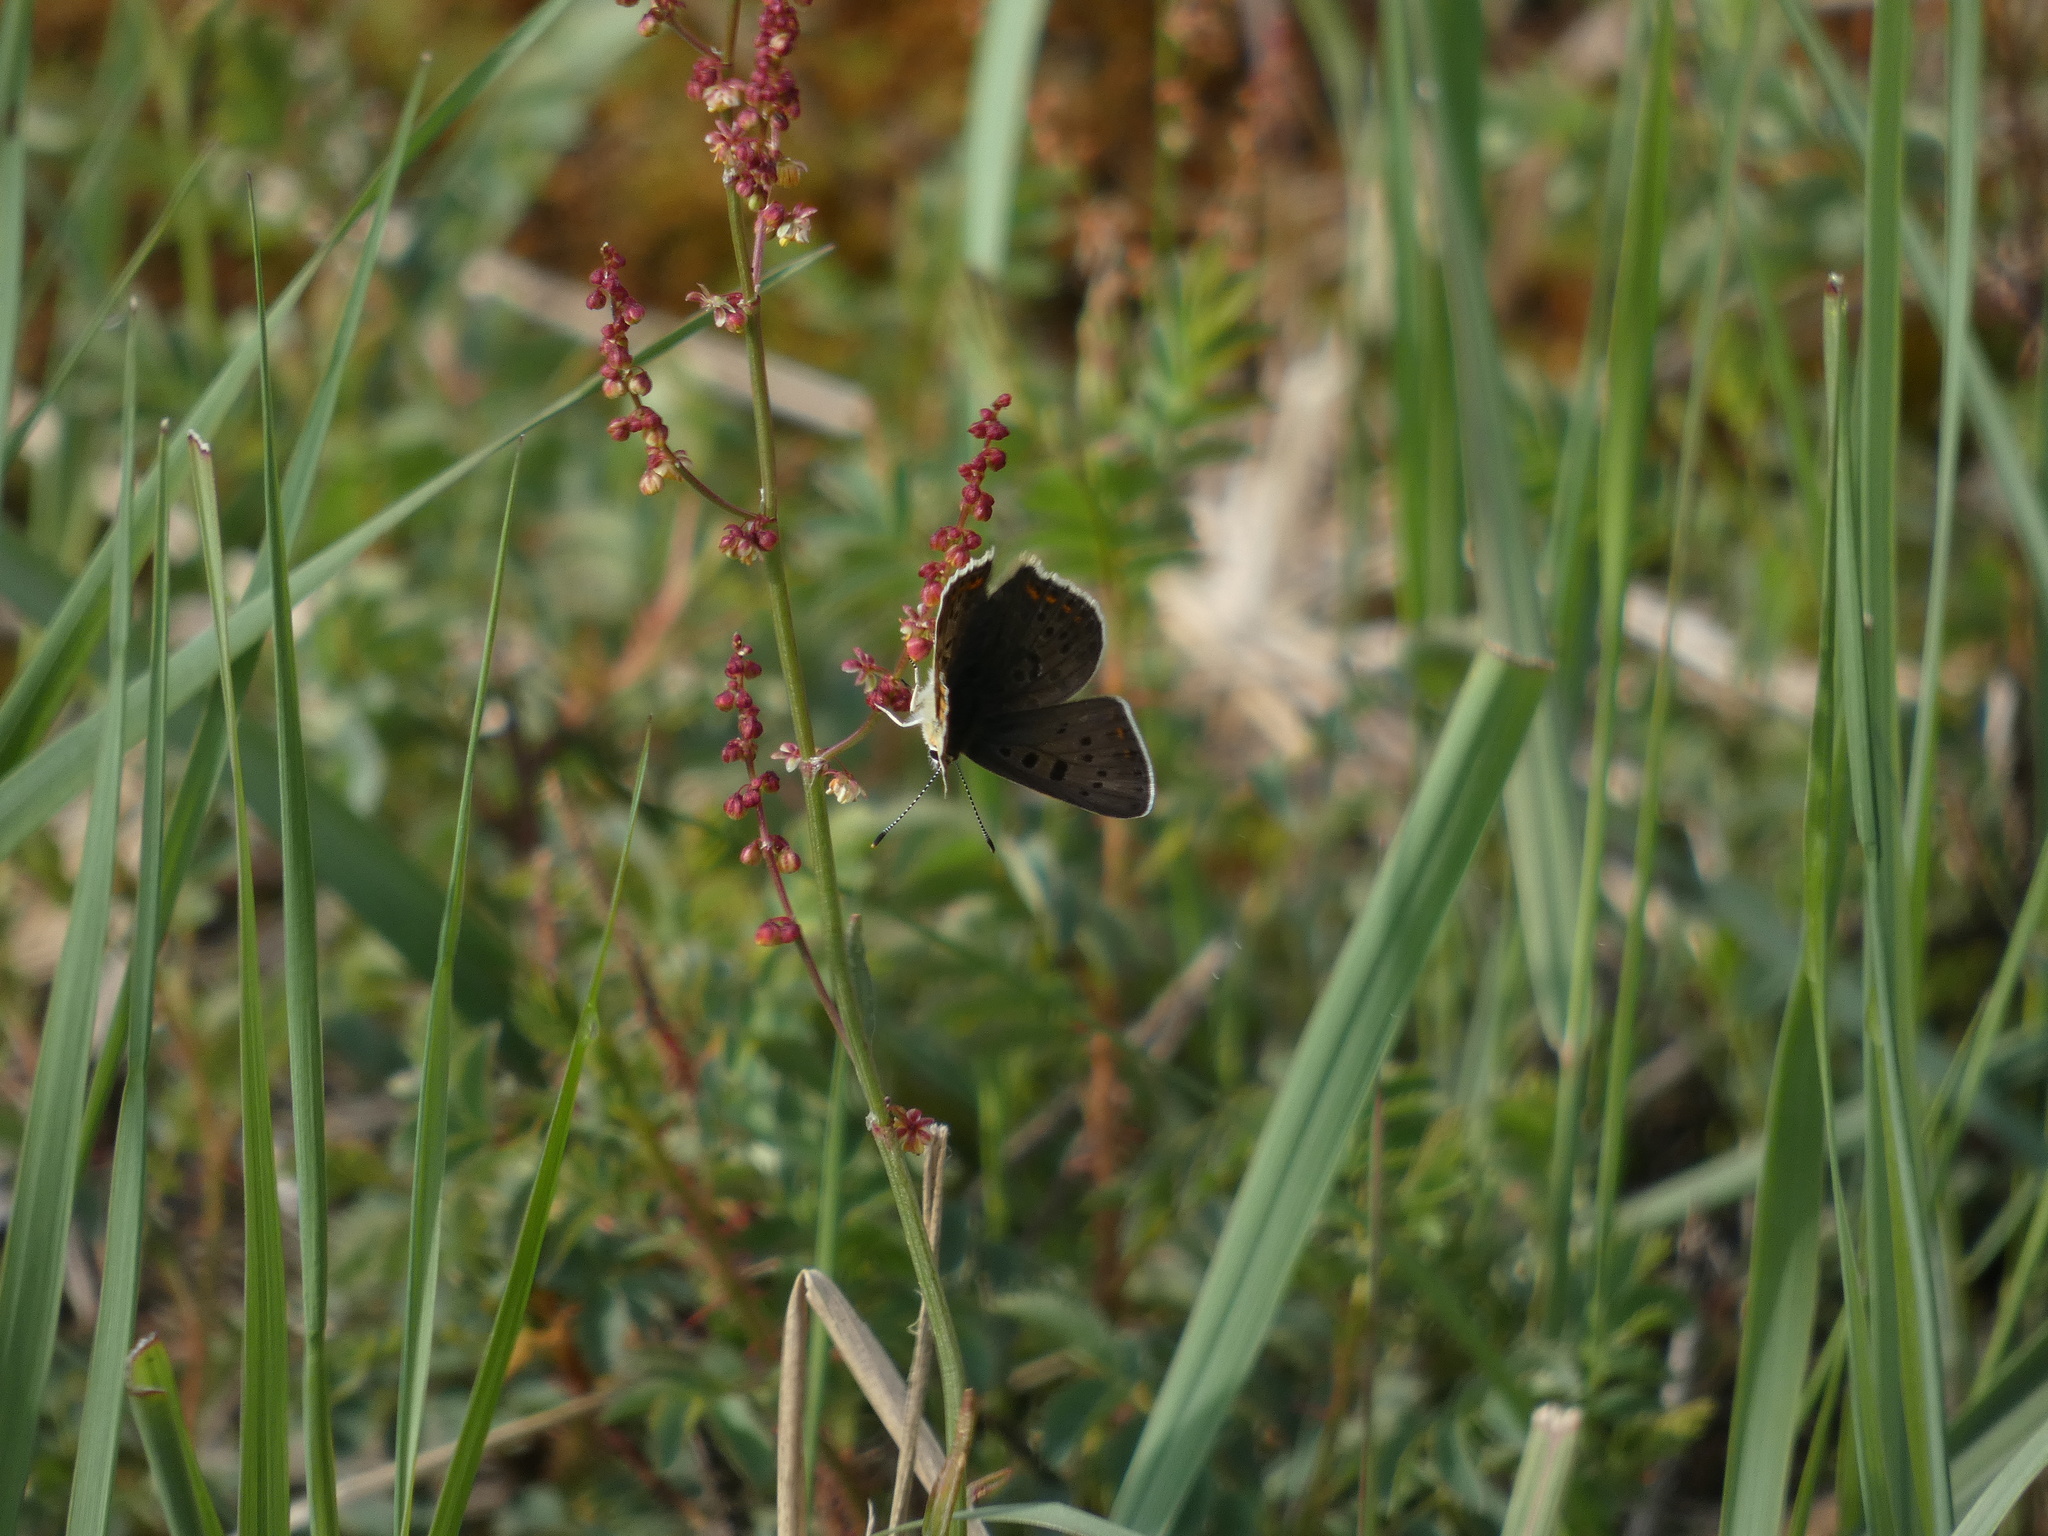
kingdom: Animalia
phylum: Arthropoda
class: Insecta
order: Lepidoptera
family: Lycaenidae
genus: Loweia
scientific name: Loweia tityrus
